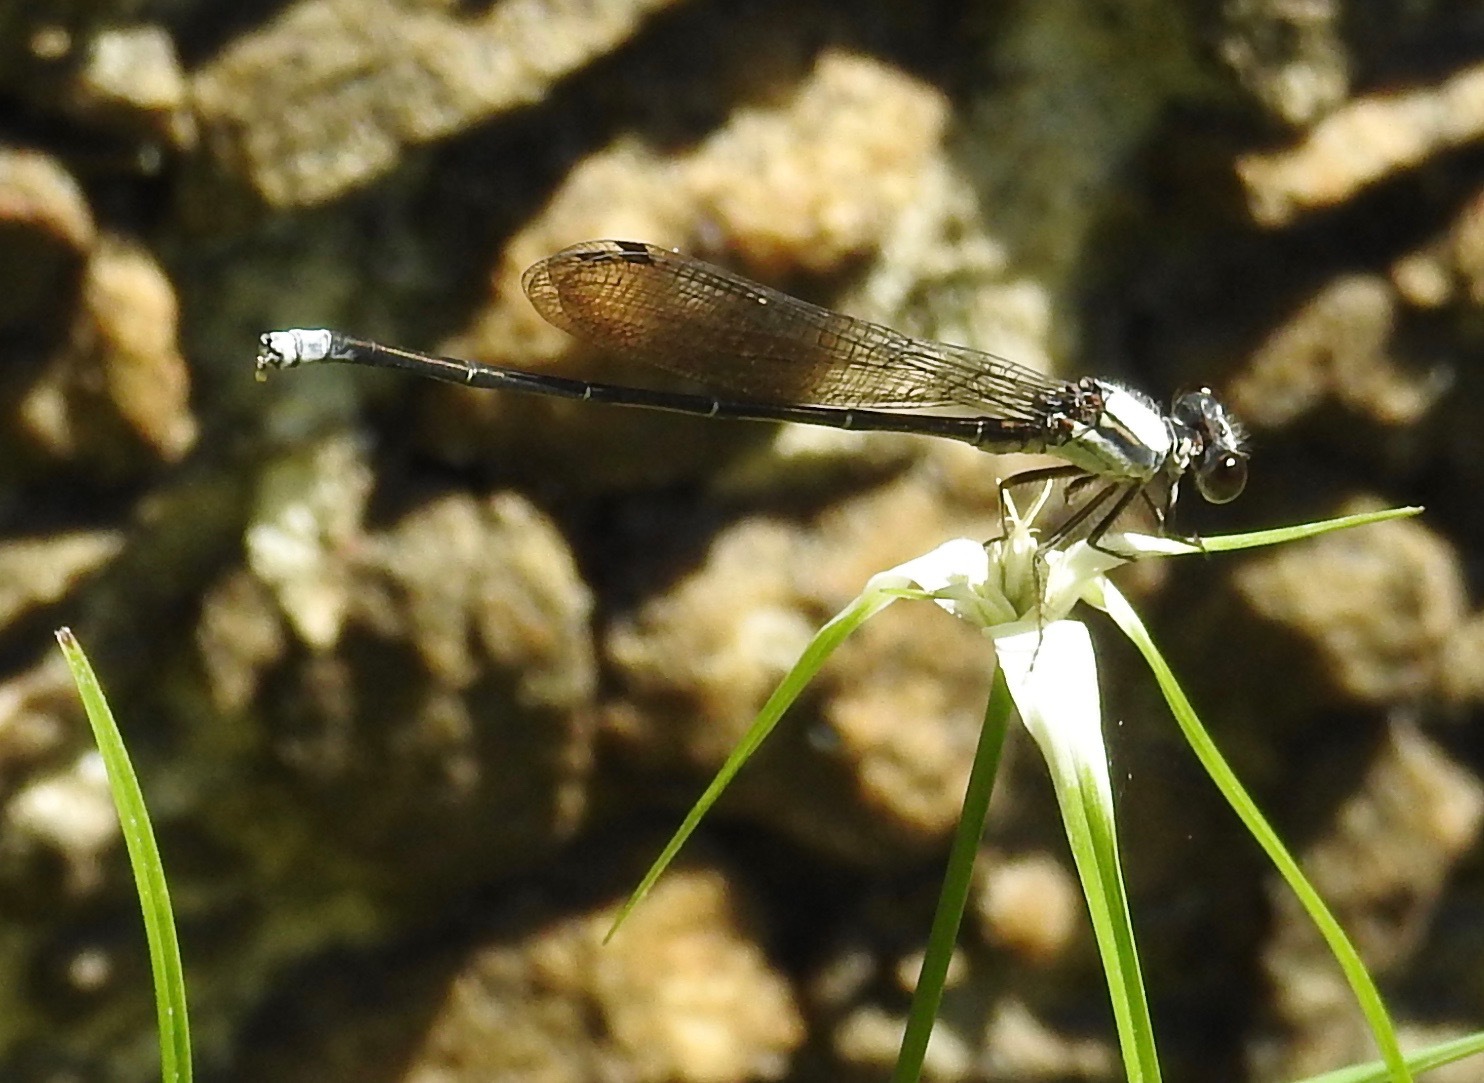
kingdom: Animalia
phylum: Arthropoda
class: Insecta
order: Odonata
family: Coenagrionidae
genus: Argia
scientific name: Argia moesta
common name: Powdered dancer
